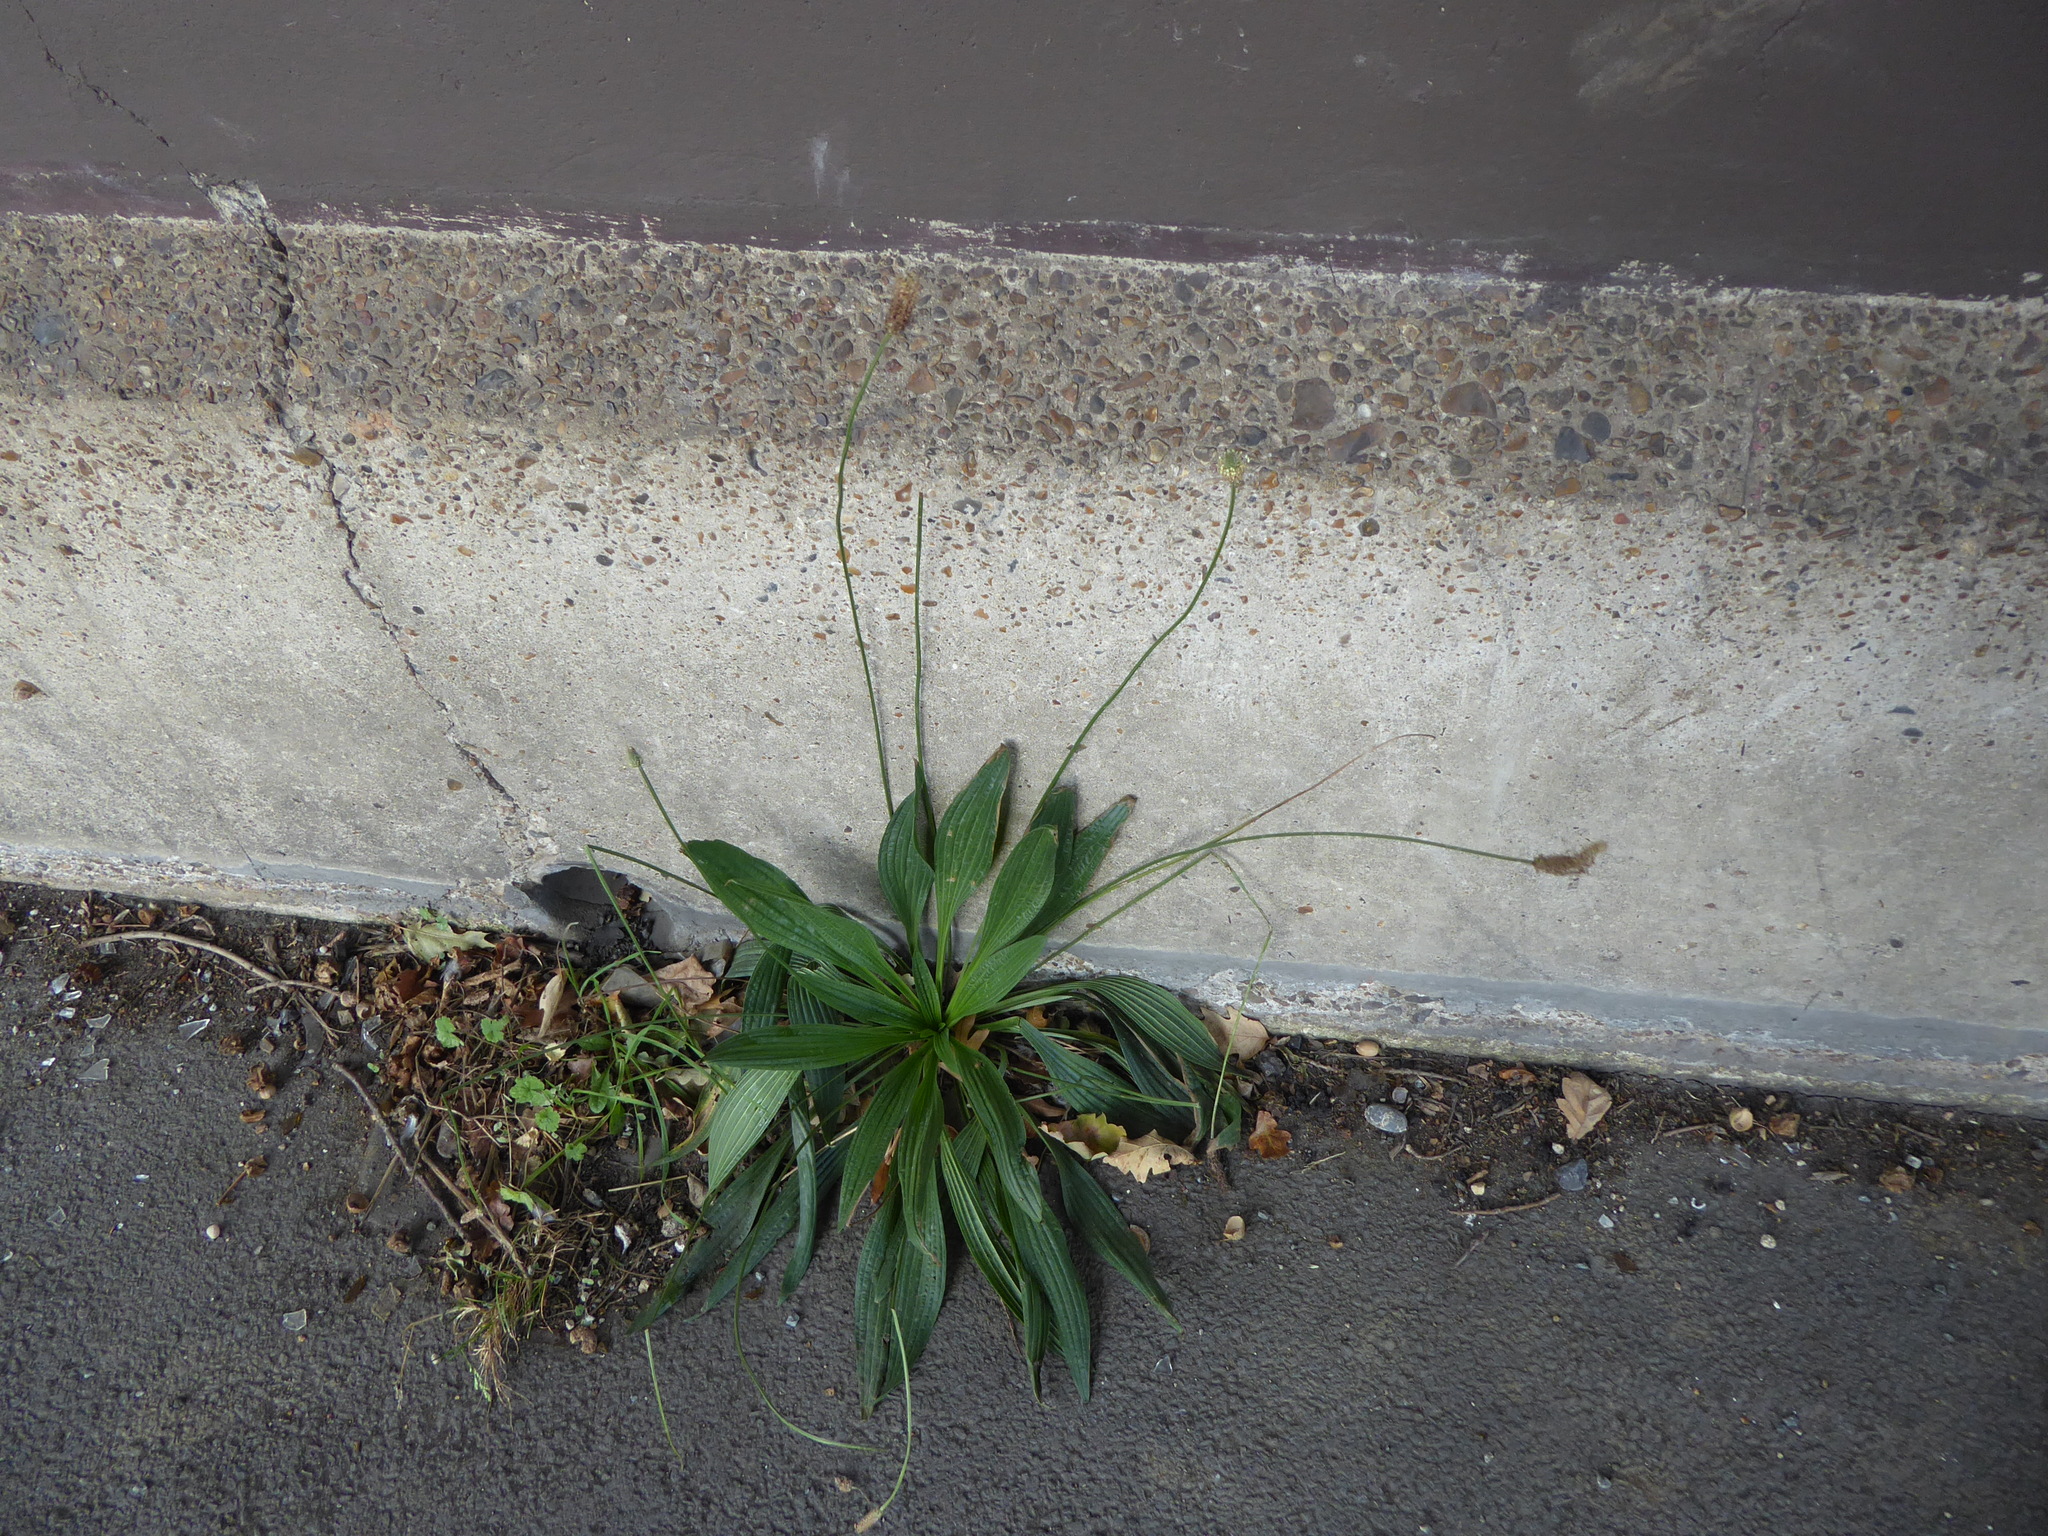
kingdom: Plantae
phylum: Tracheophyta
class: Magnoliopsida
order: Lamiales
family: Plantaginaceae
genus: Plantago
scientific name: Plantago lanceolata
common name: Ribwort plantain
